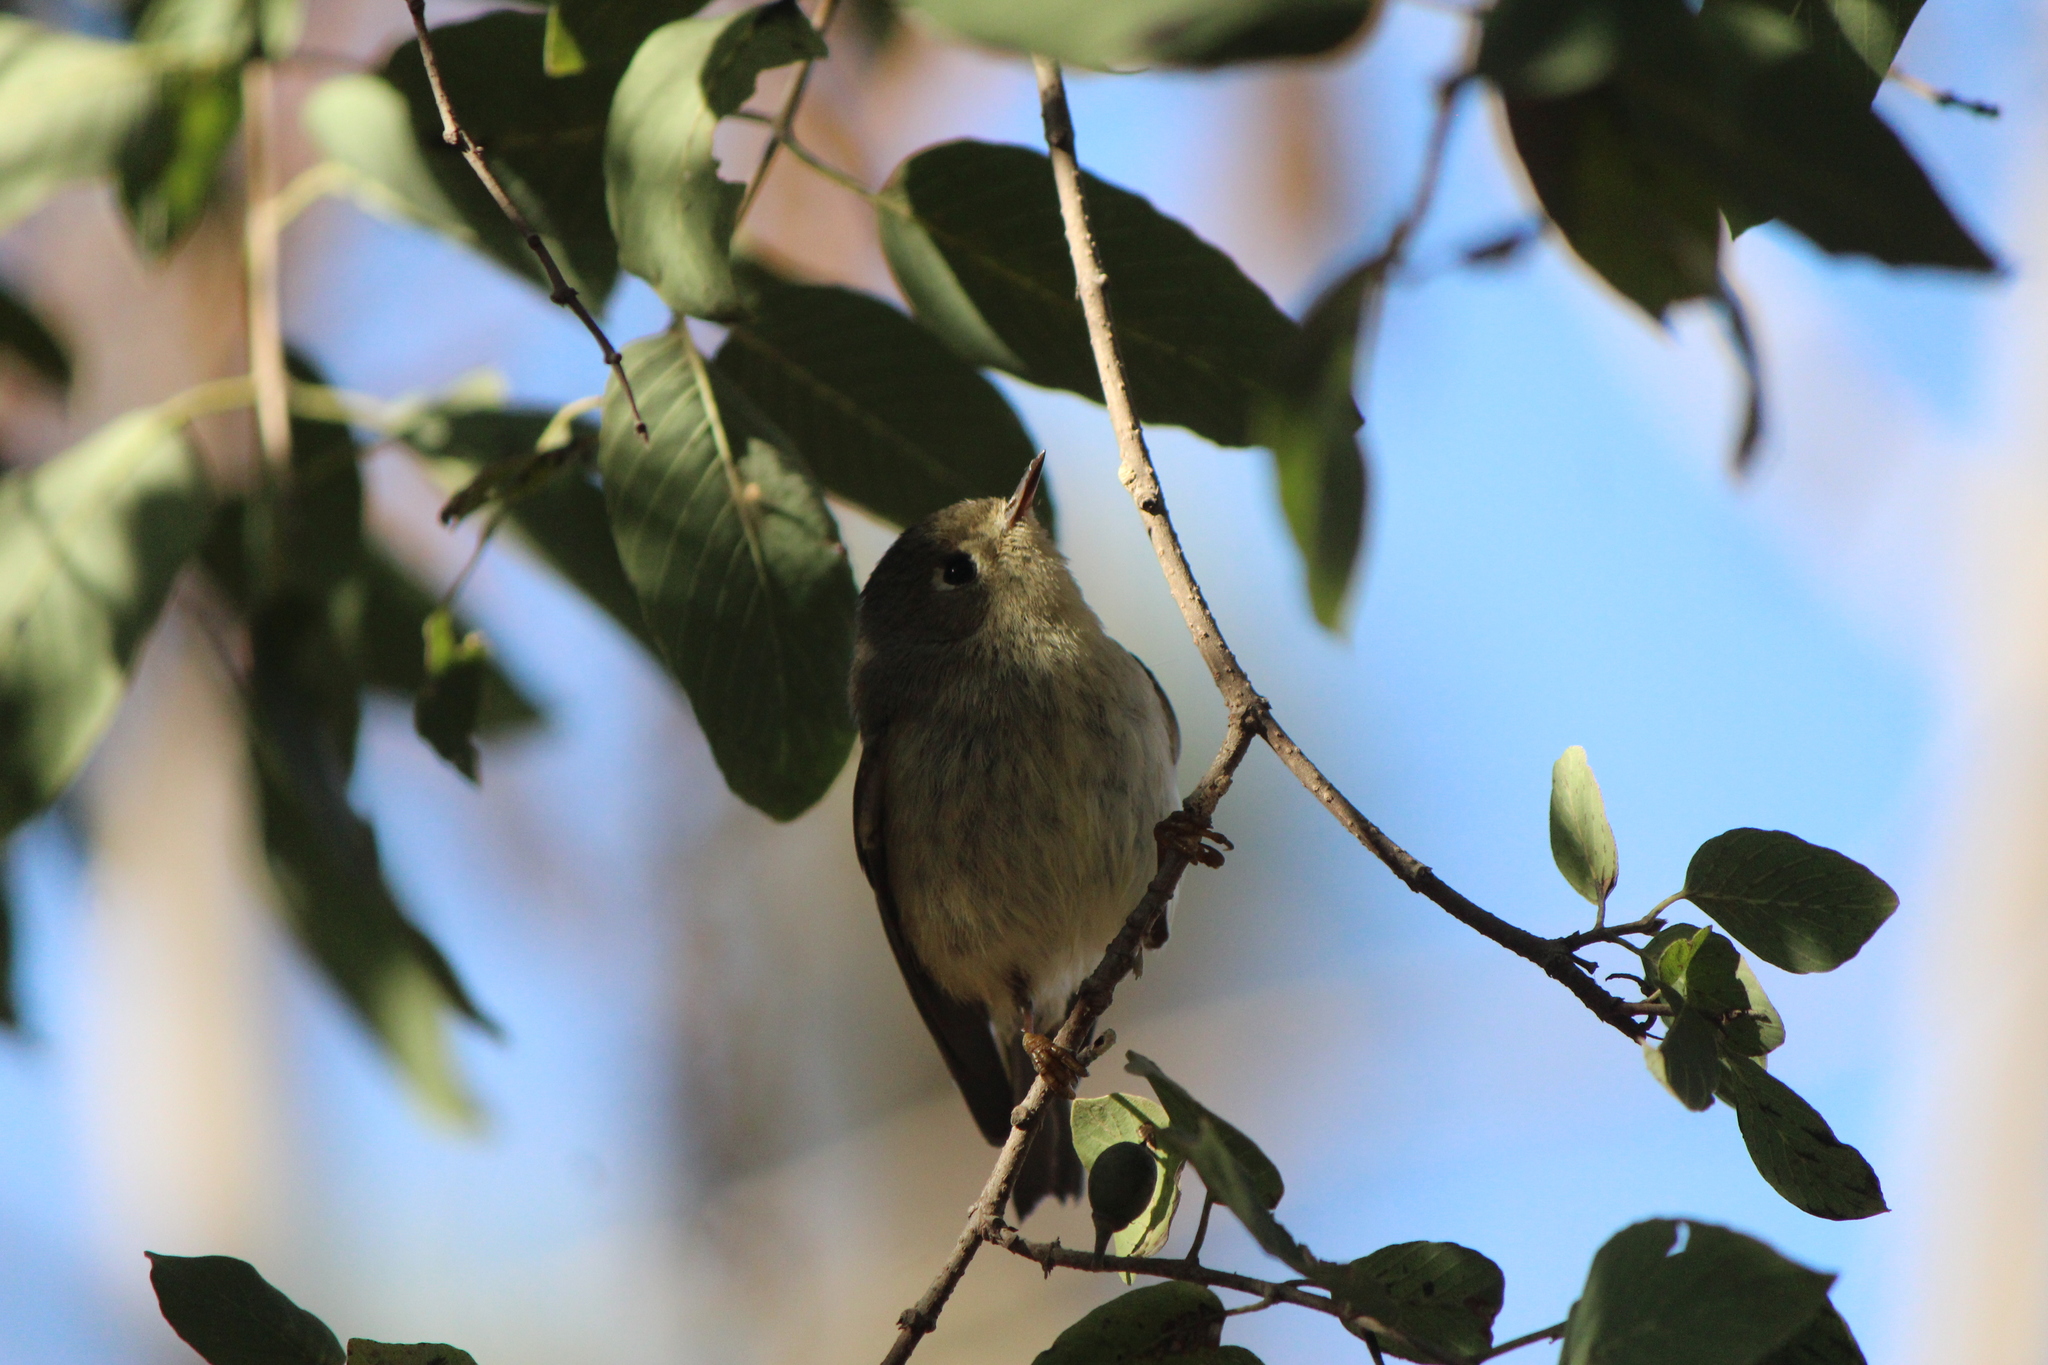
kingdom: Animalia
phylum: Chordata
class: Aves
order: Passeriformes
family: Regulidae
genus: Regulus
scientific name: Regulus calendula
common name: Ruby-crowned kinglet
